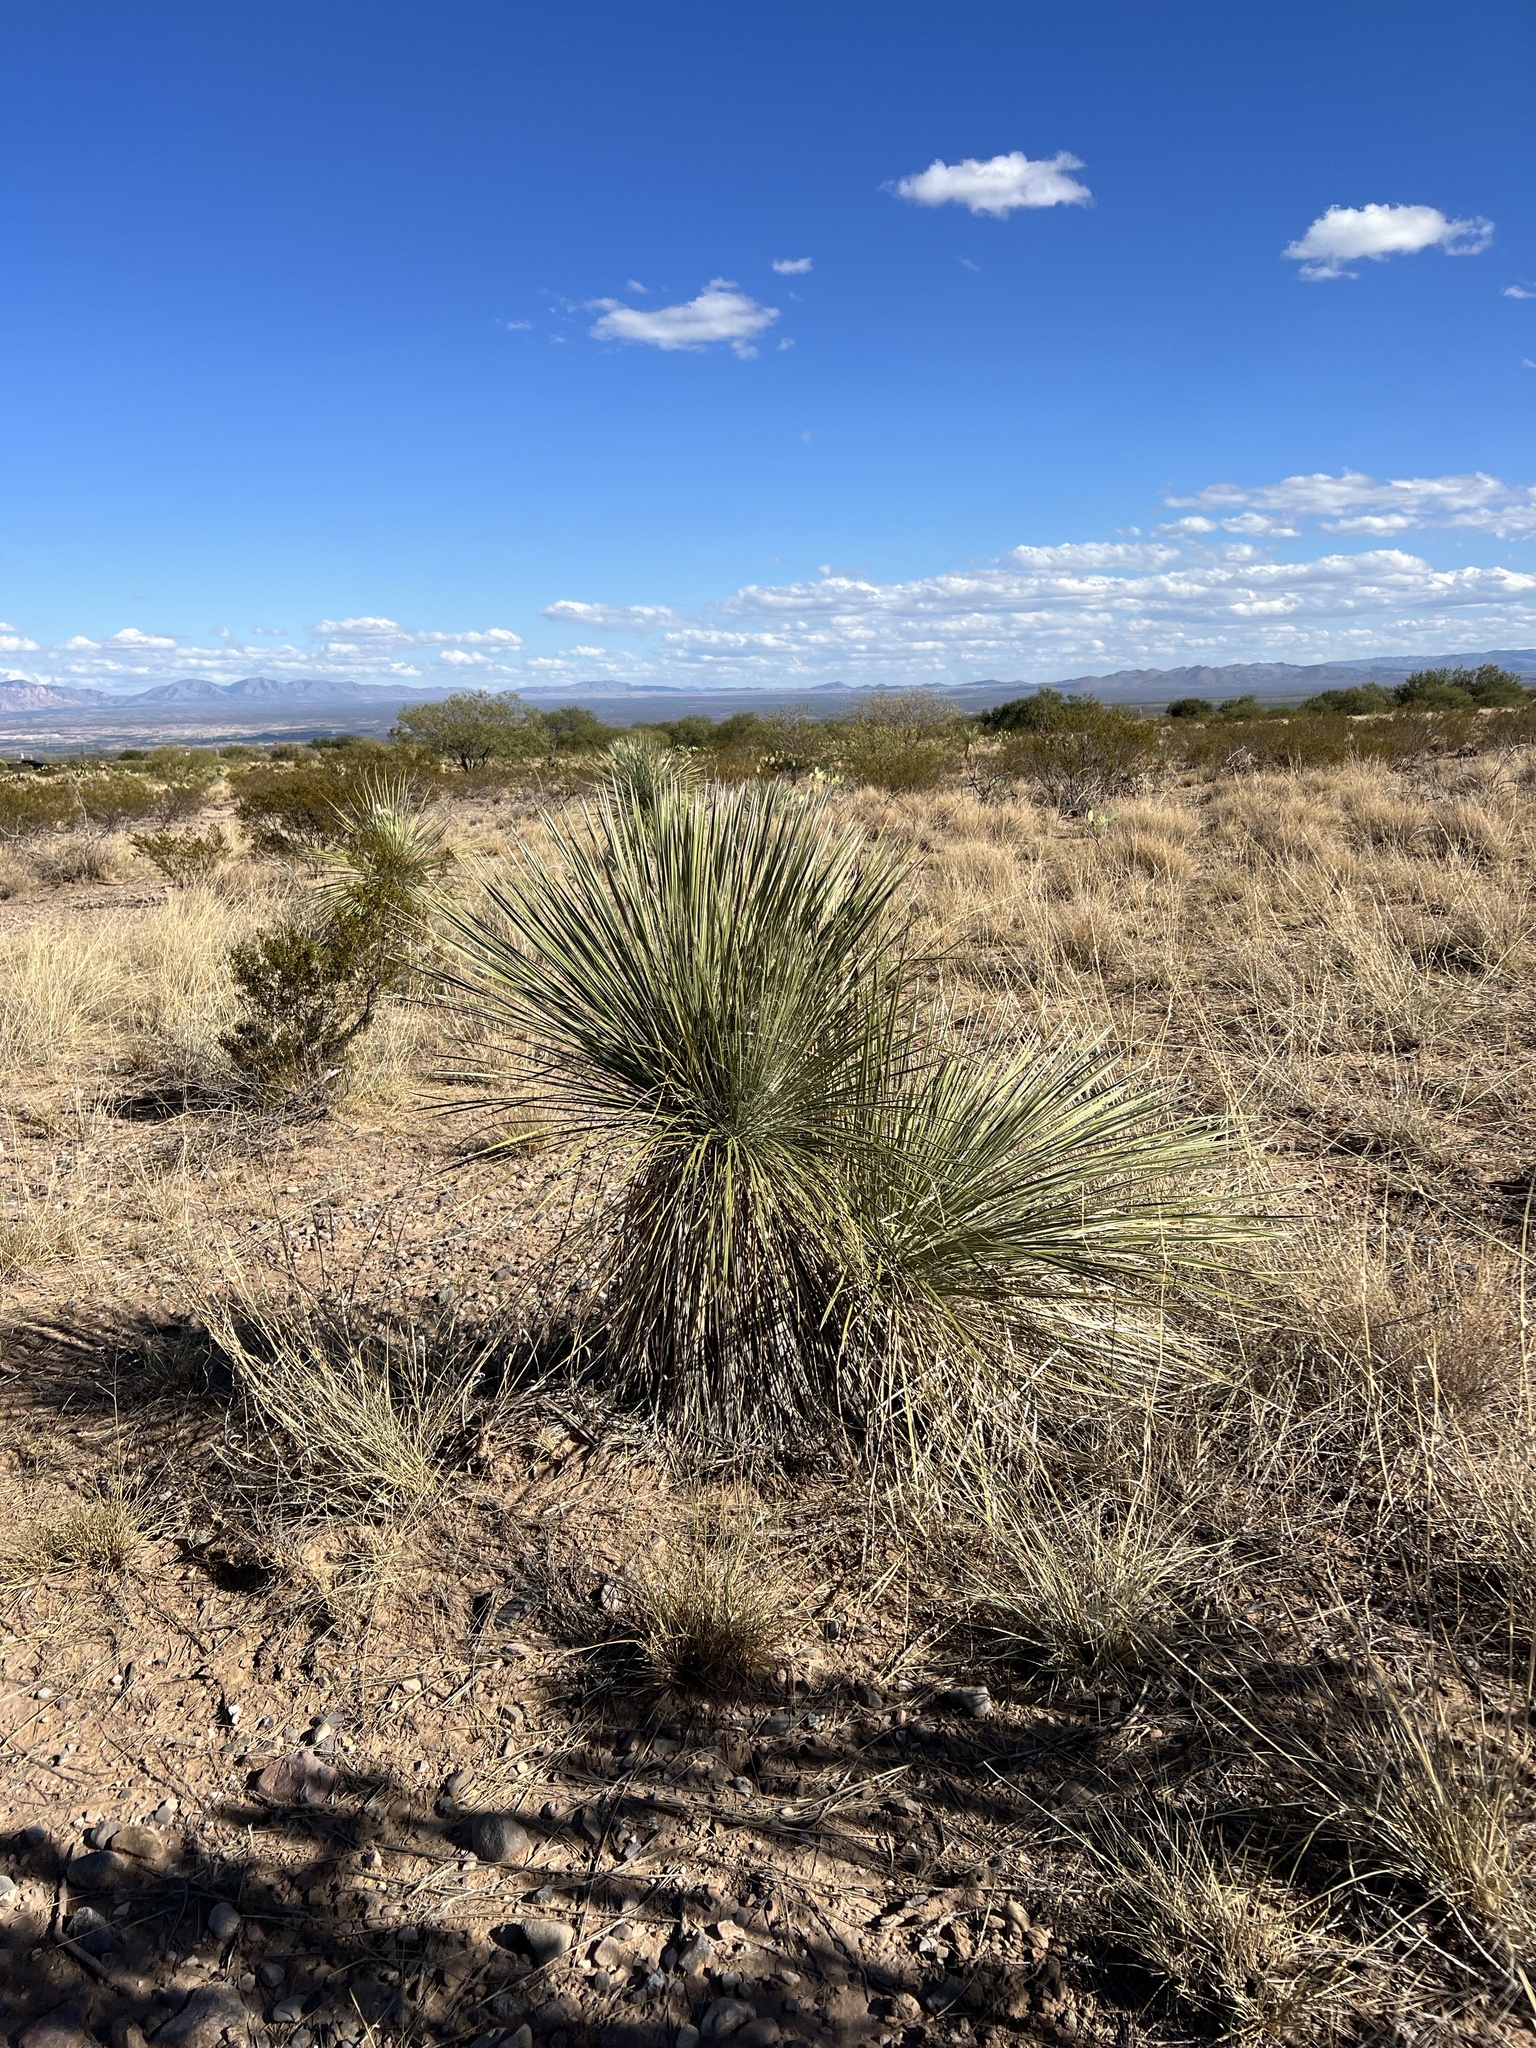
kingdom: Plantae
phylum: Tracheophyta
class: Liliopsida
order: Asparagales
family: Asparagaceae
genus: Yucca
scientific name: Yucca elata
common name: Palmella
